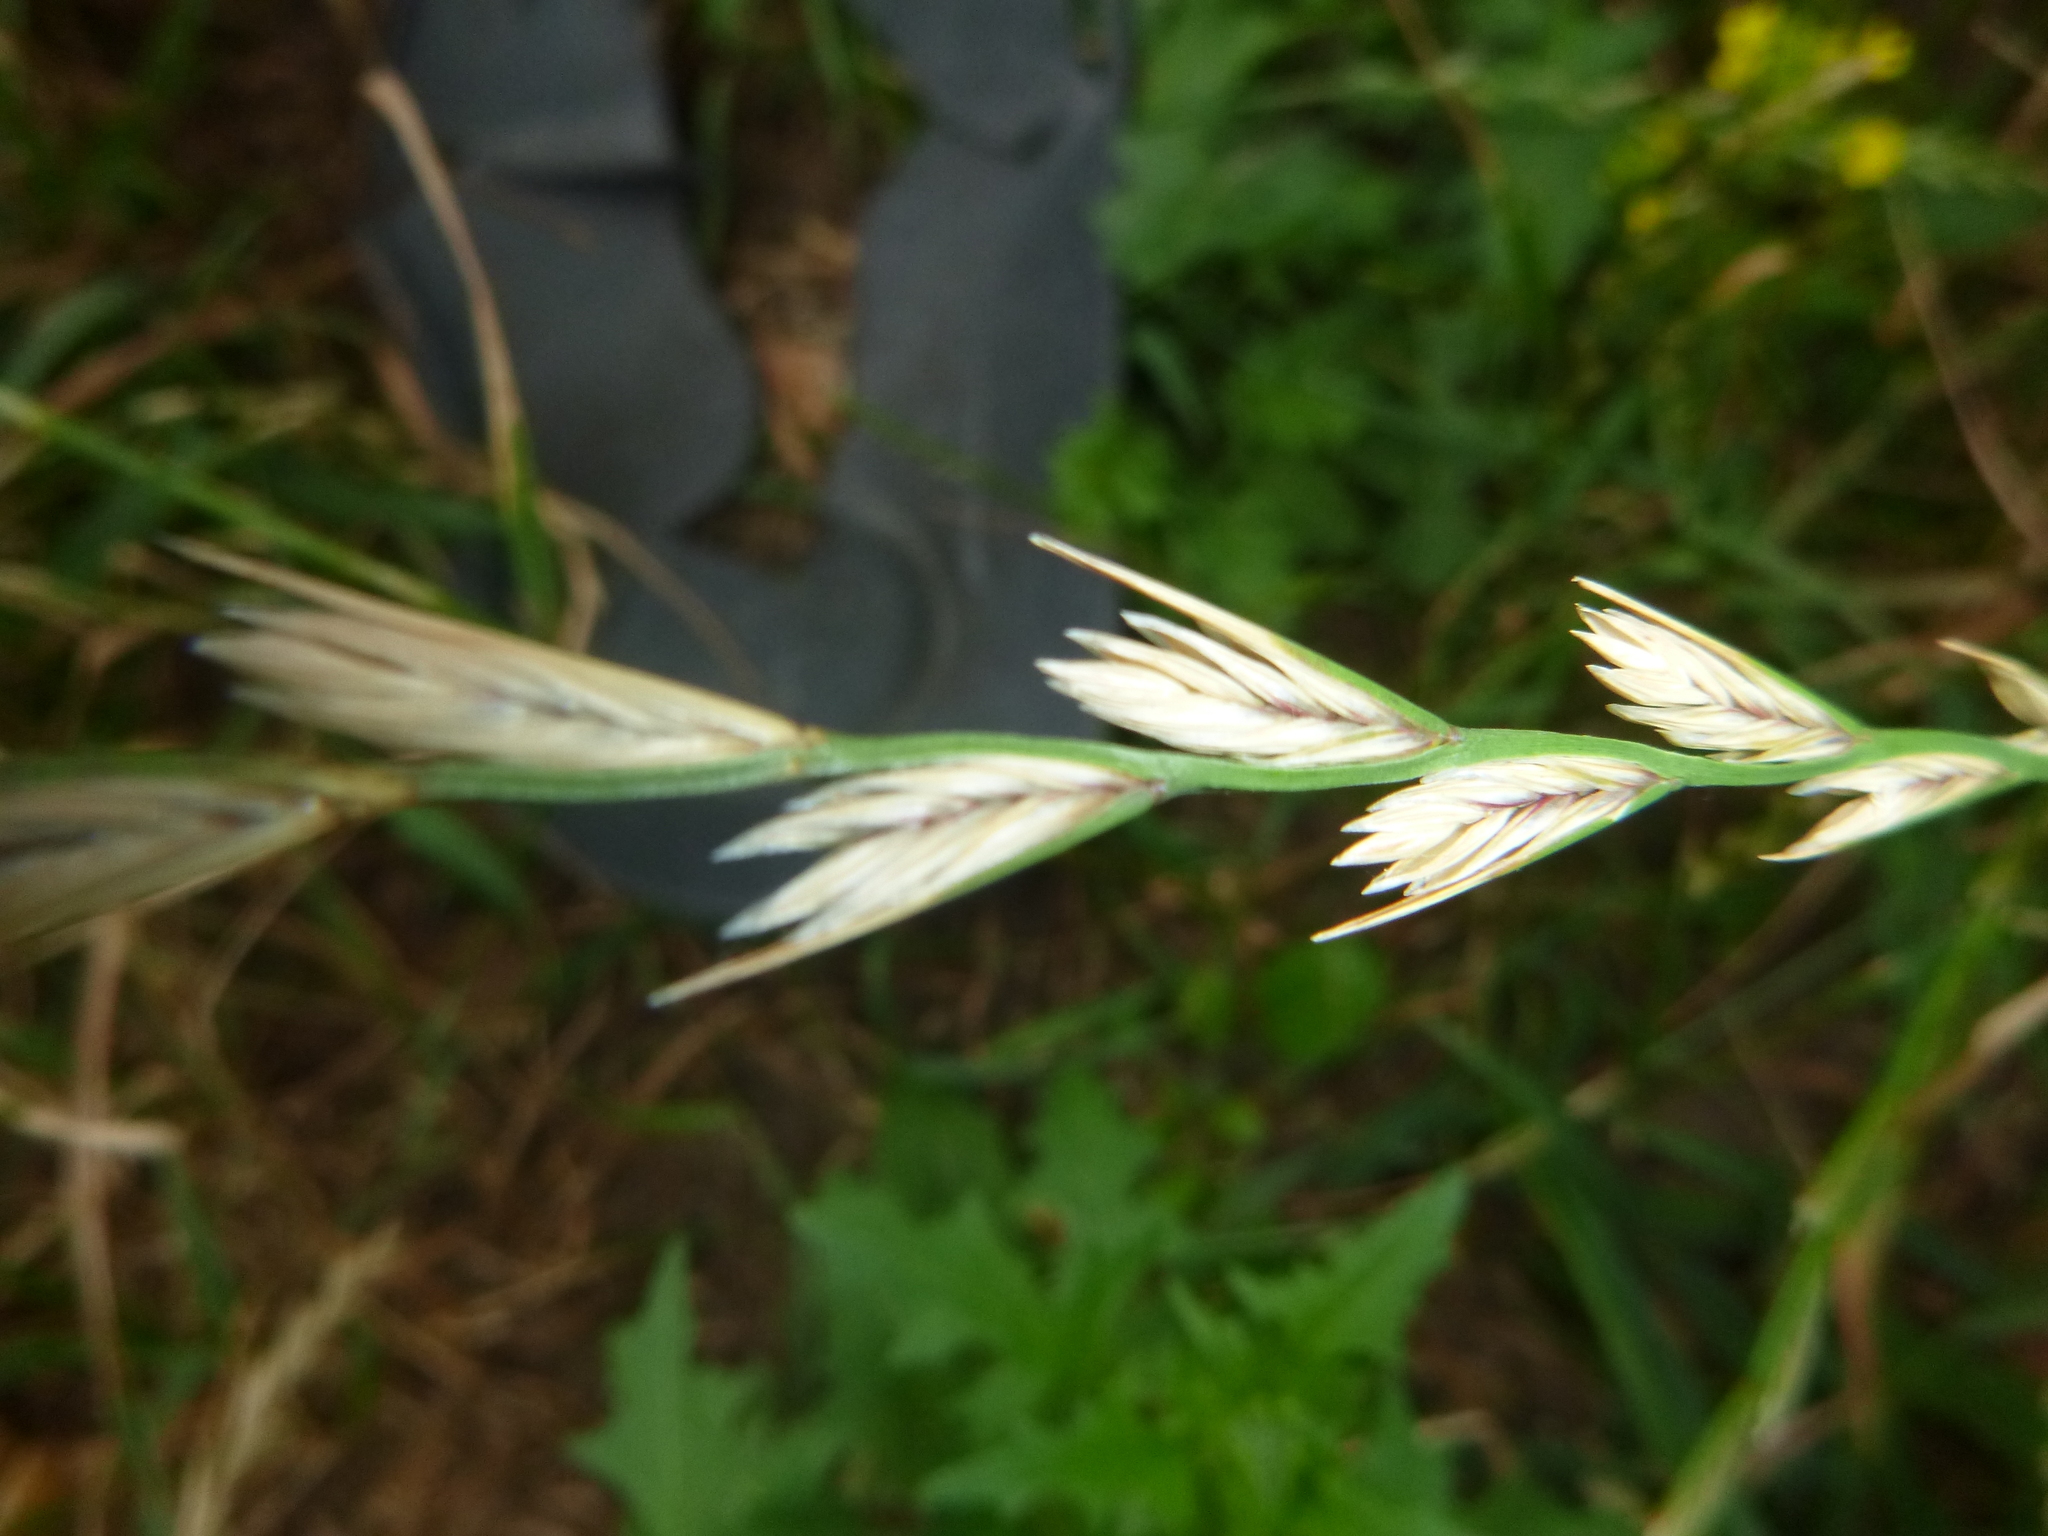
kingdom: Plantae
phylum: Tracheophyta
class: Liliopsida
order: Poales
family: Poaceae
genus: Lolium
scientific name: Lolium perenne
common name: Perennial ryegrass
